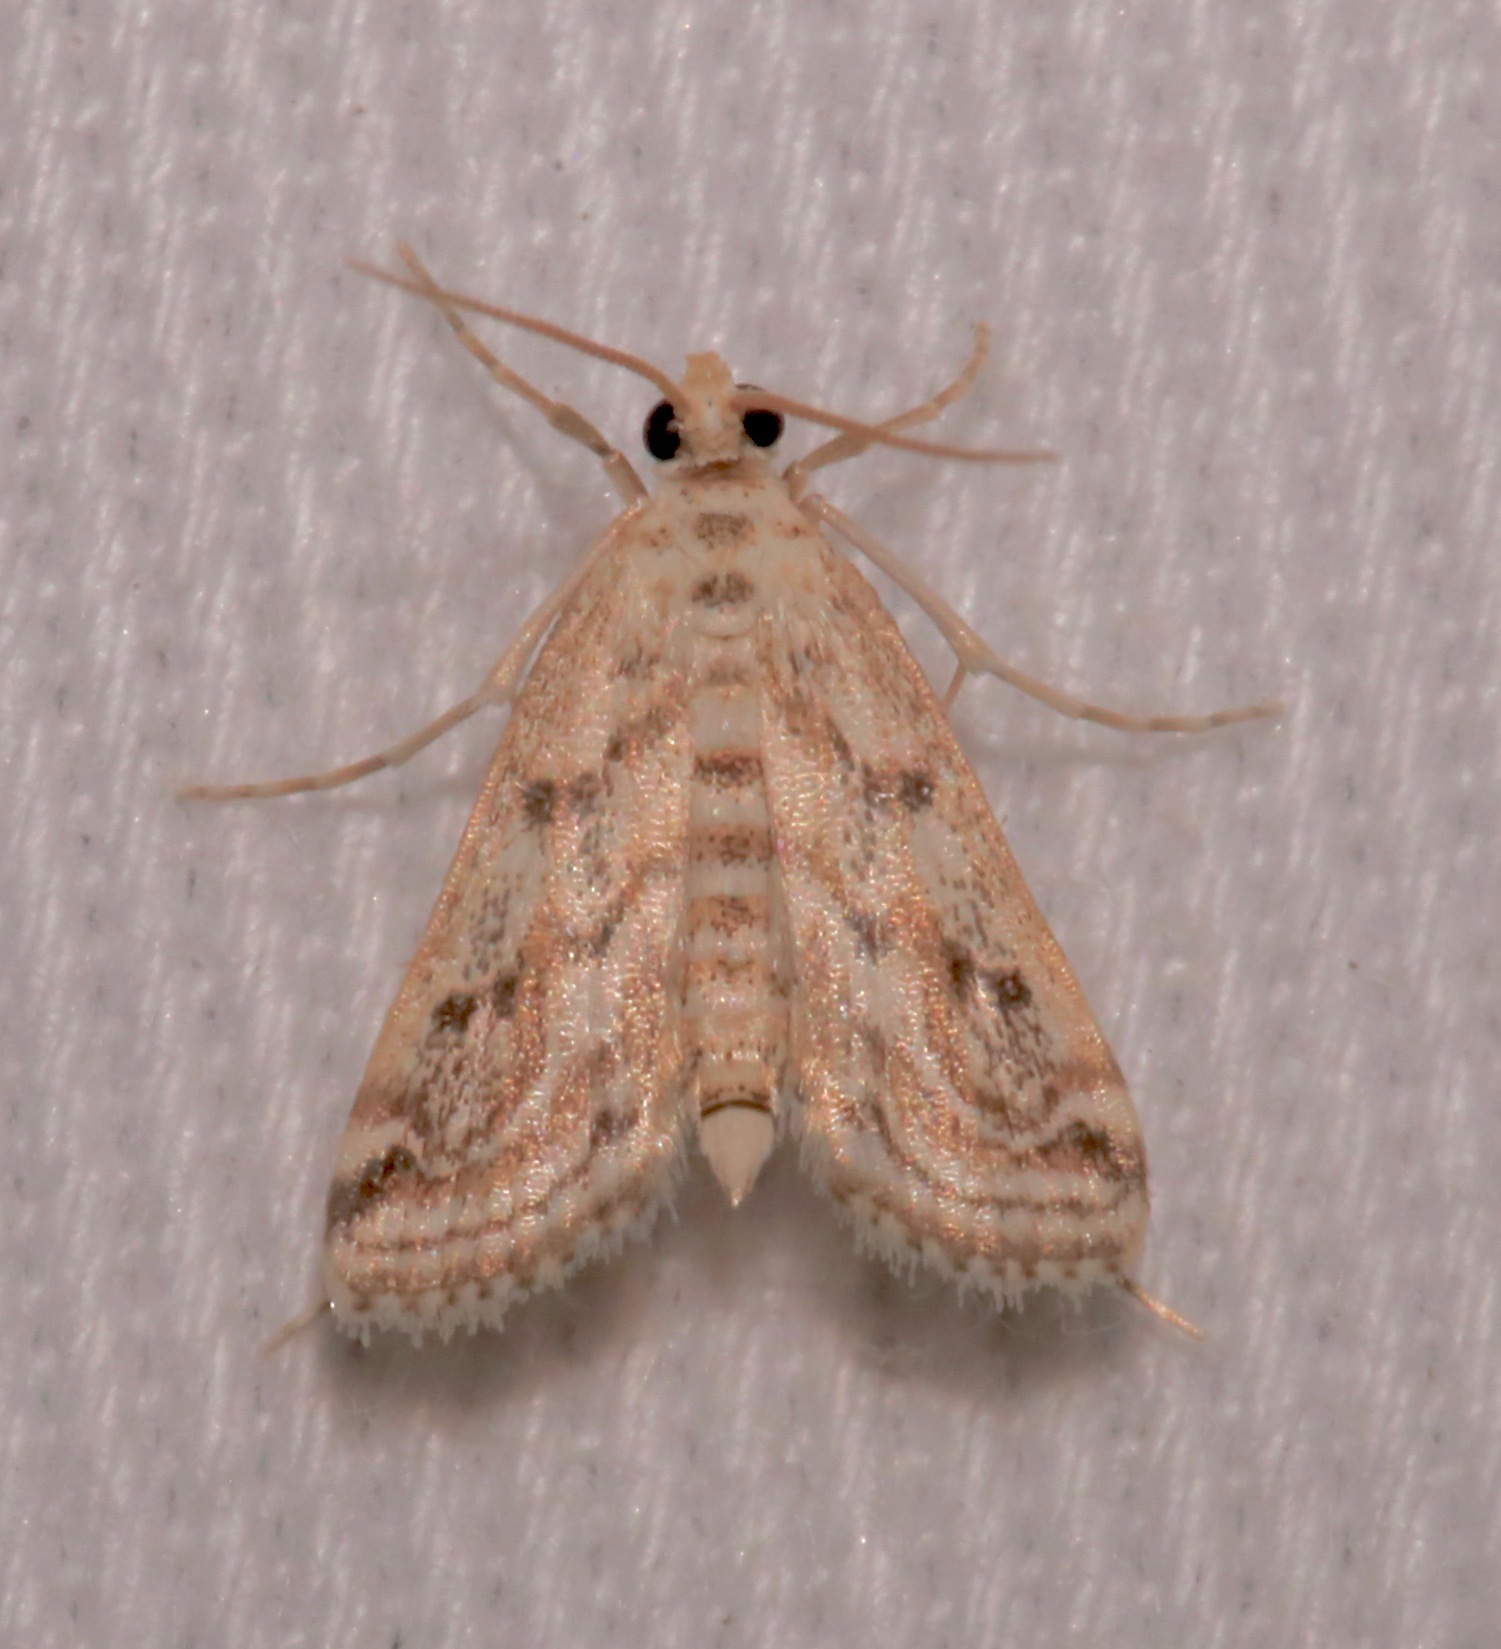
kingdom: Animalia
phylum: Arthropoda
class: Insecta
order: Lepidoptera
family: Crambidae
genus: Parapoynx
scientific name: Parapoynx allionealis
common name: Bladderwort casemaker
